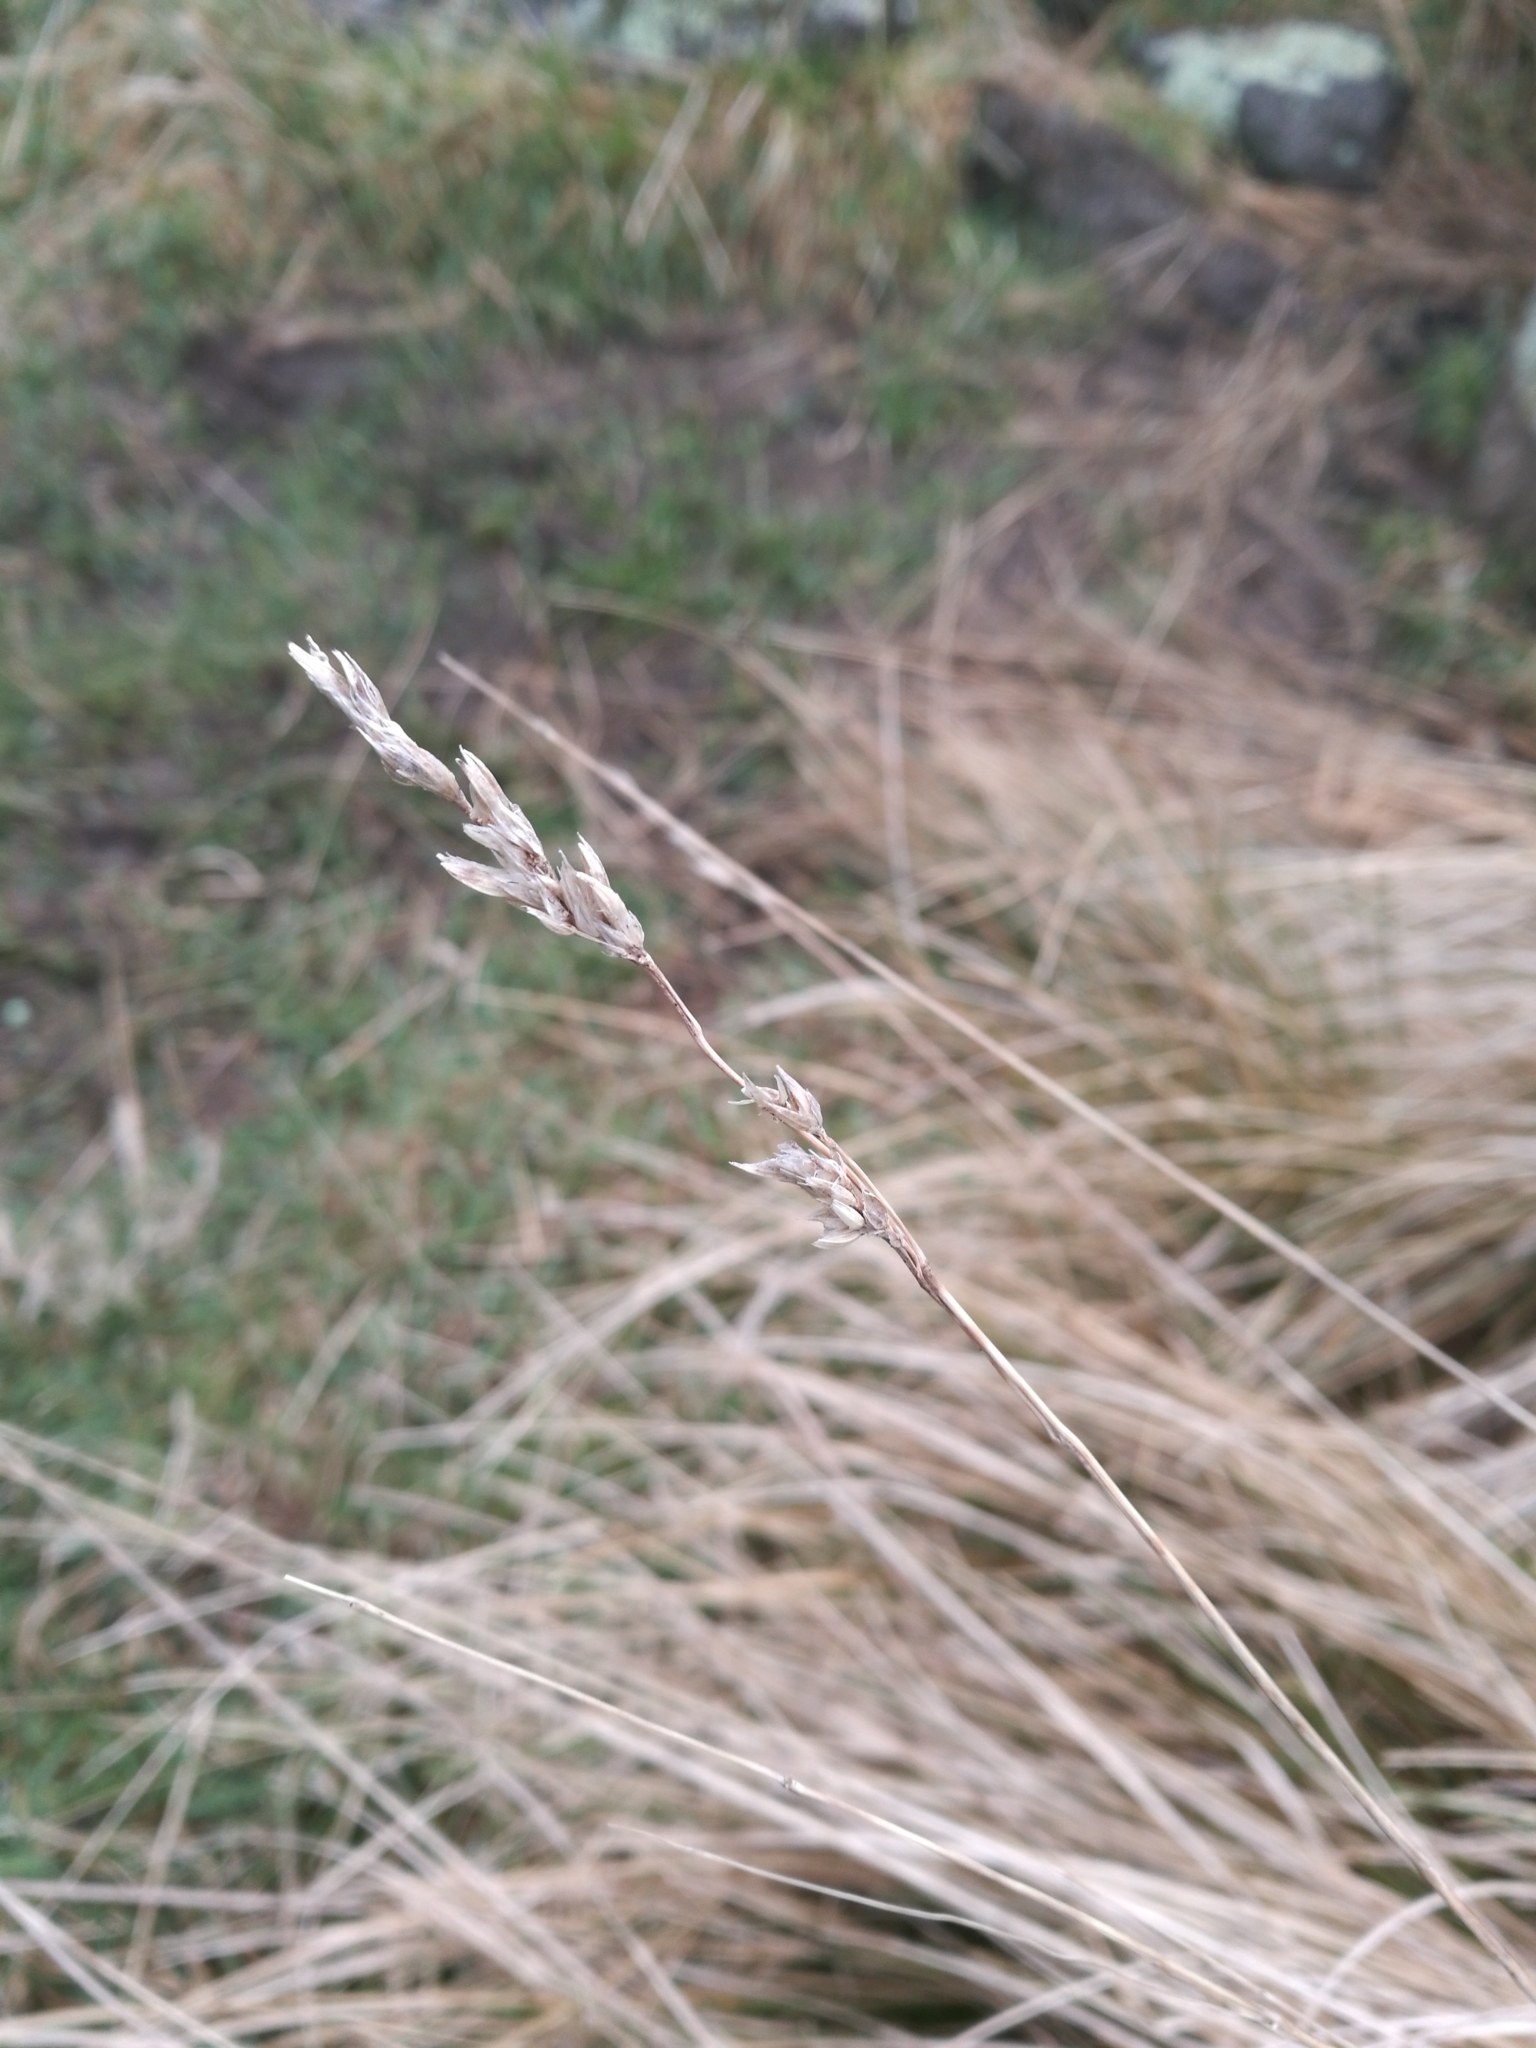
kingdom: Plantae
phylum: Tracheophyta
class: Liliopsida
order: Poales
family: Poaceae
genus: Poa
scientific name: Poa cita
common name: Silver tussock
